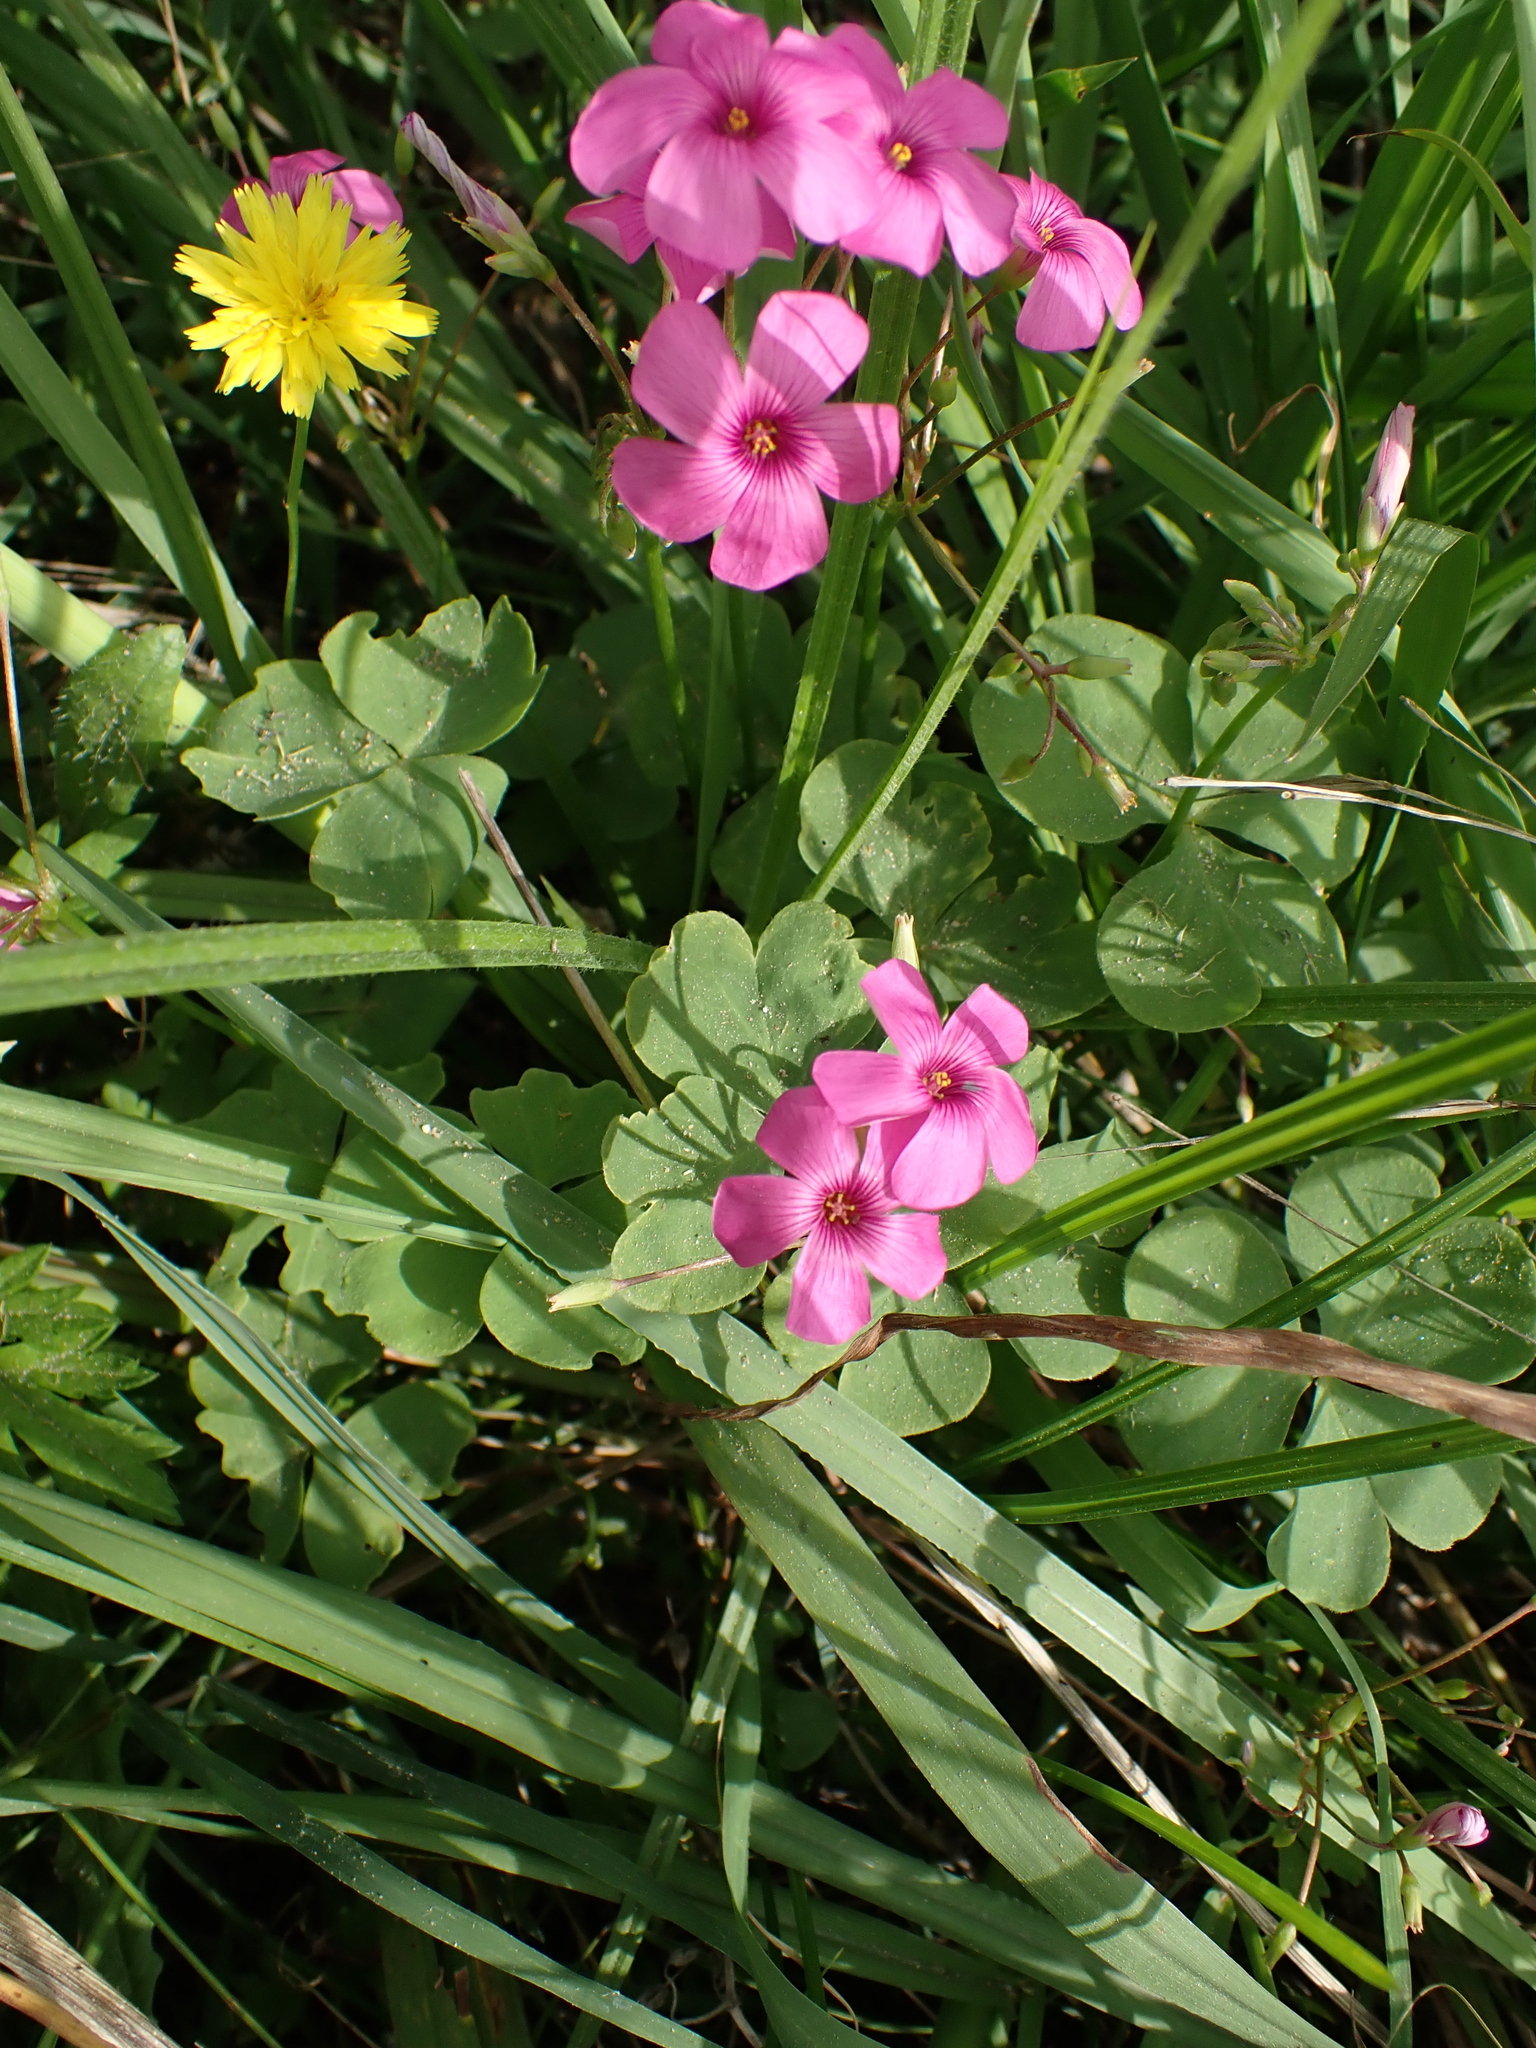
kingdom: Plantae
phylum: Tracheophyta
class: Magnoliopsida
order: Oxalidales
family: Oxalidaceae
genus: Oxalis
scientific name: Oxalis articulata
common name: Pink-sorrel
